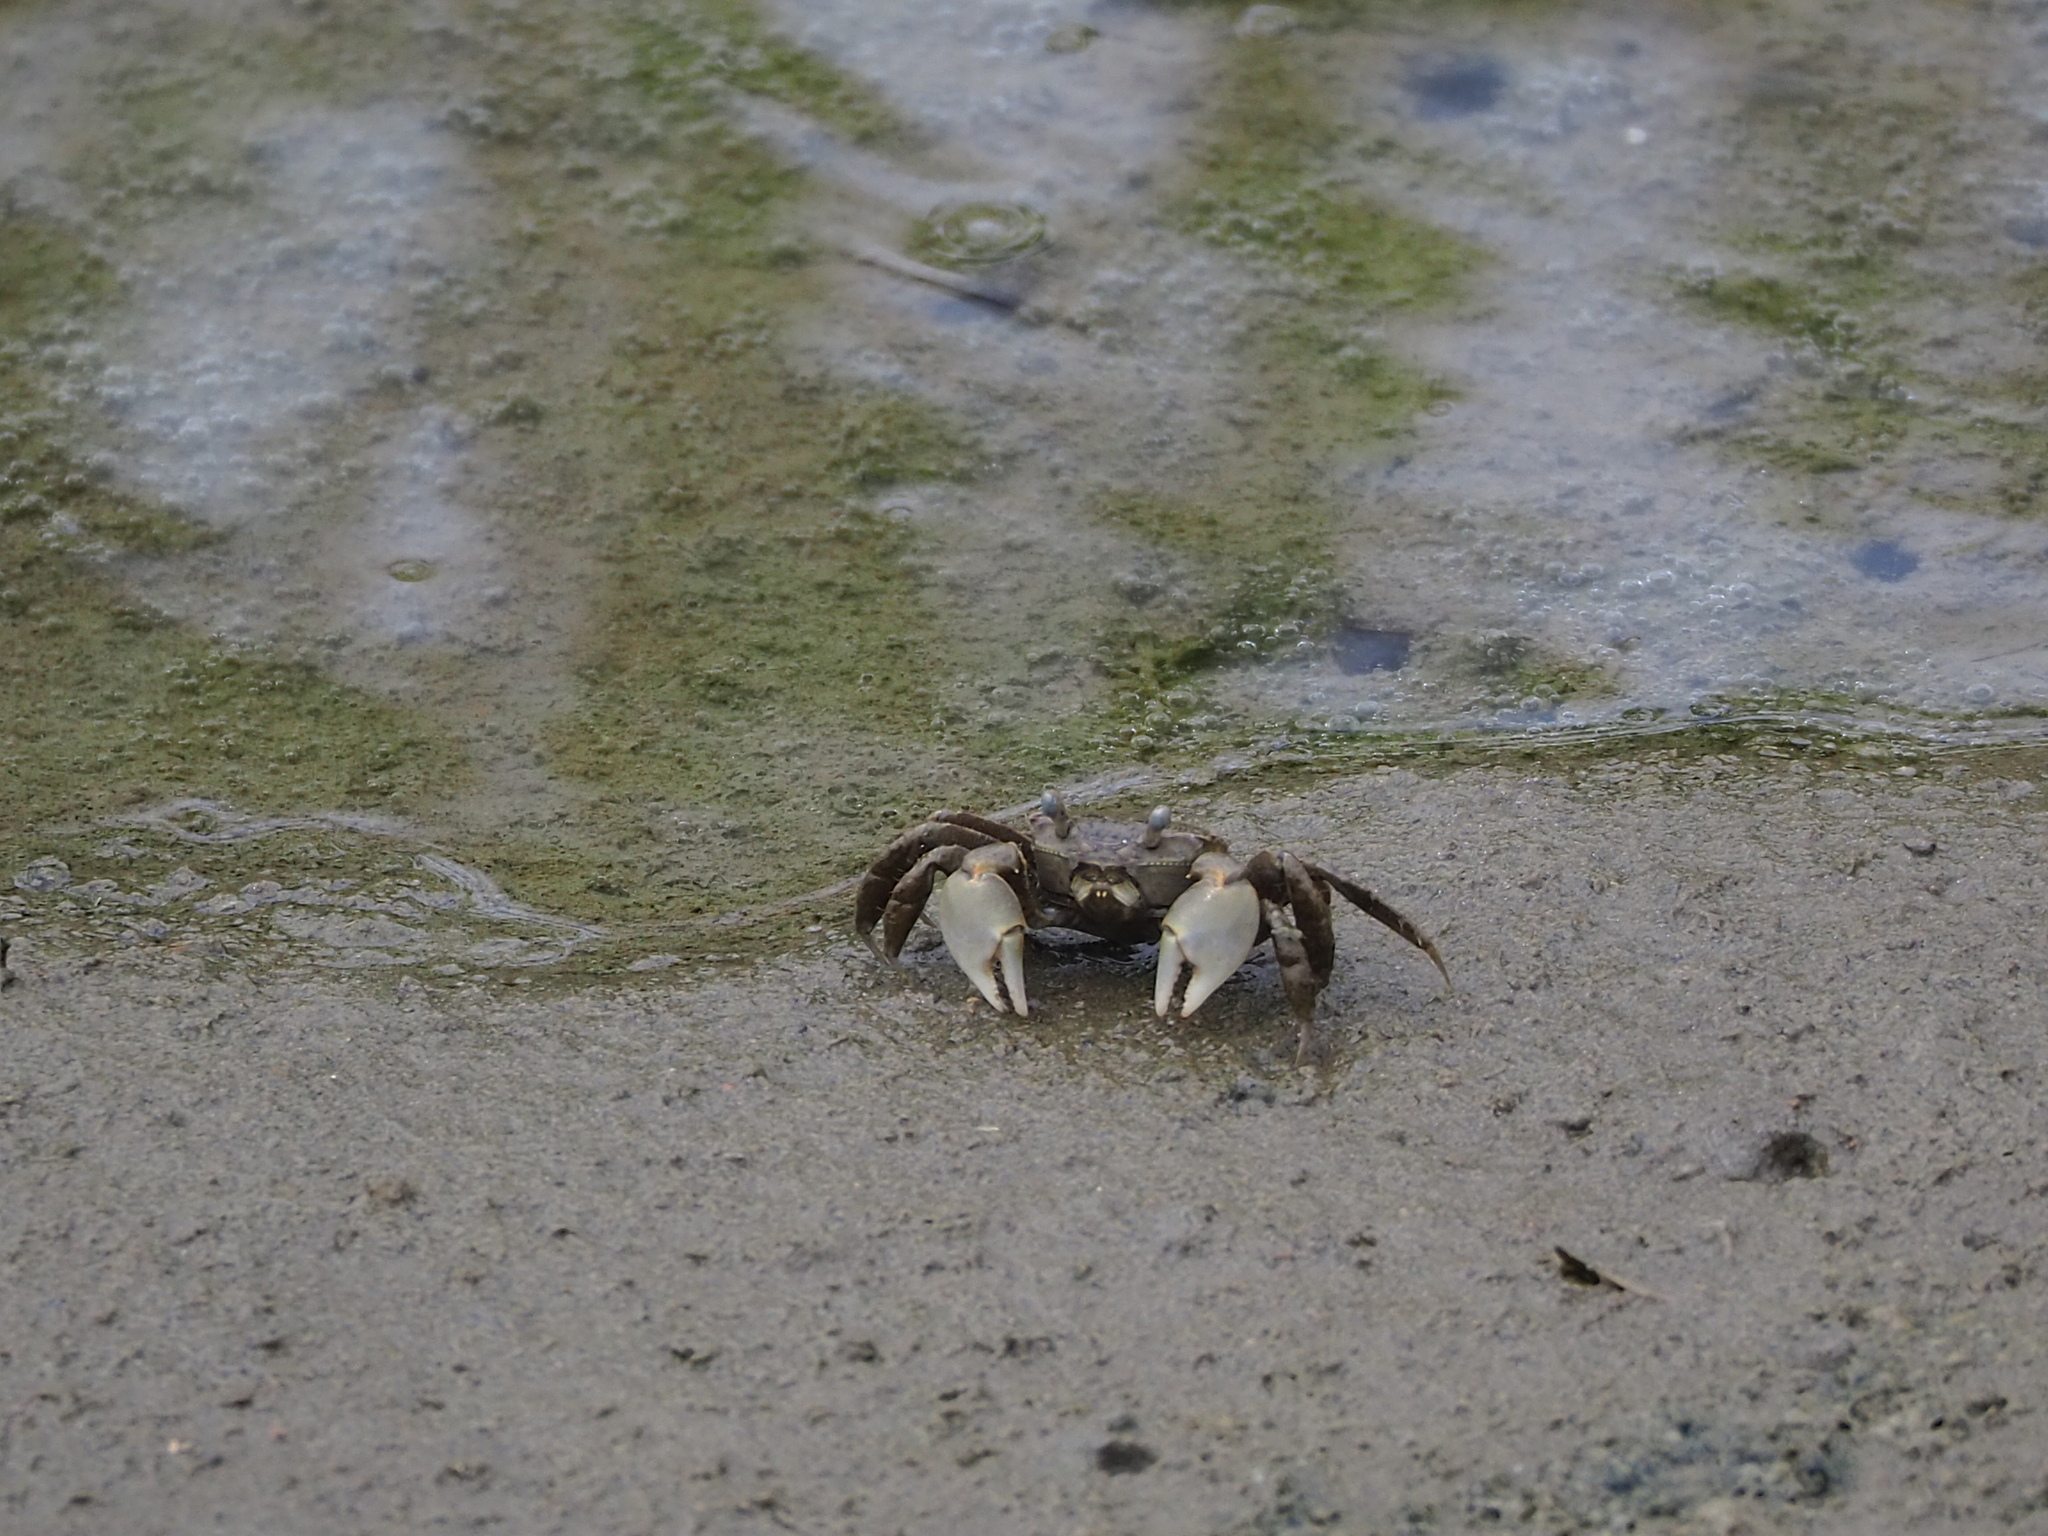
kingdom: Animalia
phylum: Arthropoda
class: Malacostraca
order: Decapoda
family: Varunidae
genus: Helicana
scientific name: Helicana doerjesi
